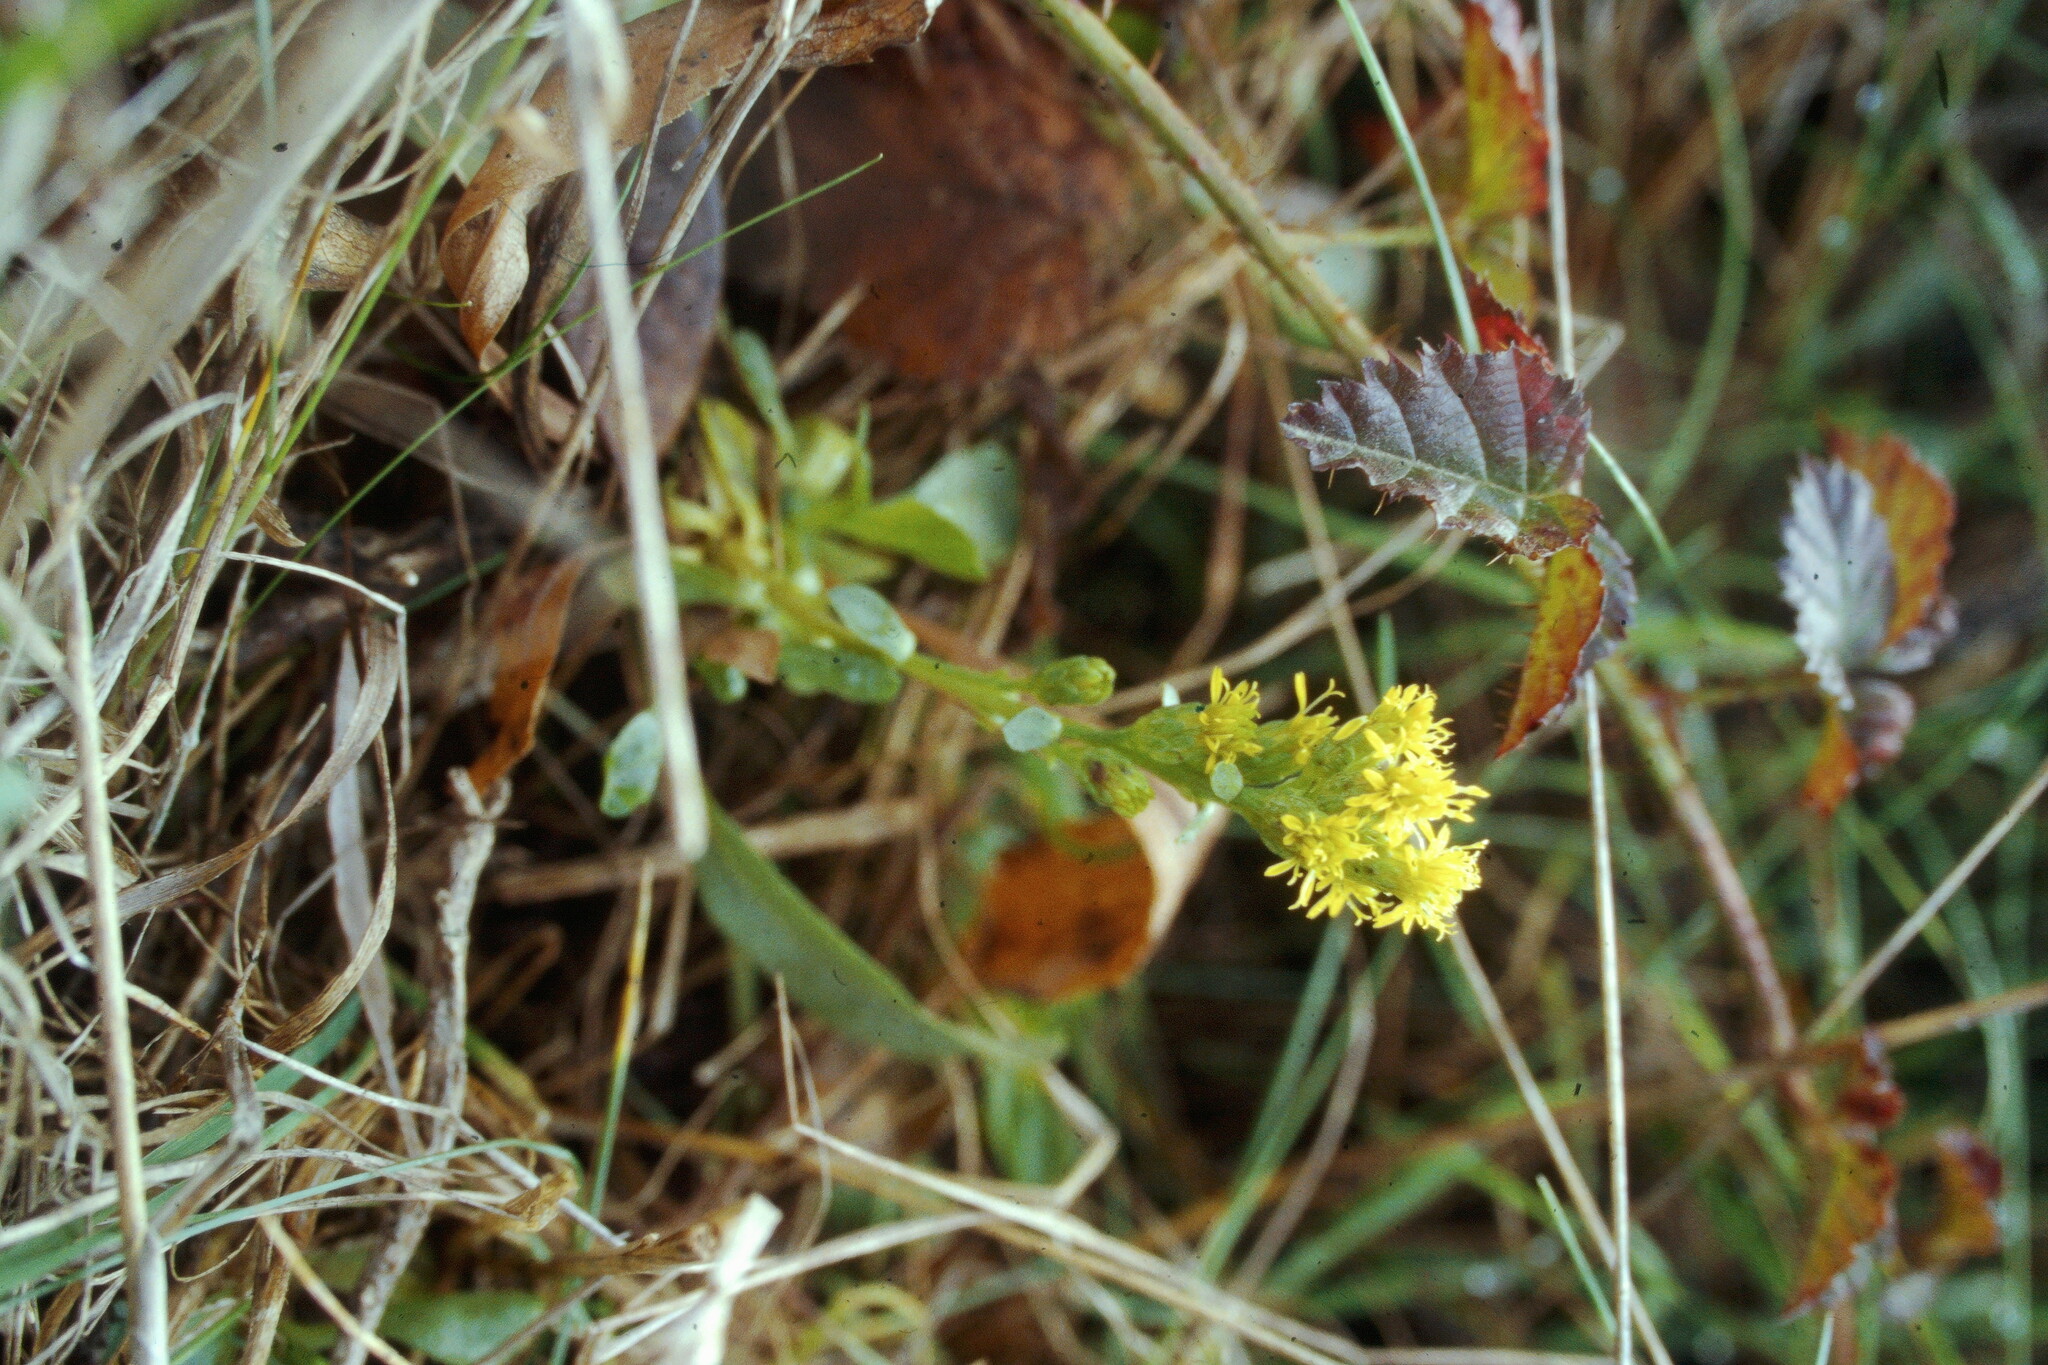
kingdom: Plantae
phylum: Tracheophyta
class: Magnoliopsida
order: Asterales
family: Asteraceae
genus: Solidago
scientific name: Solidago spathulata
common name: Coast goldenrod
